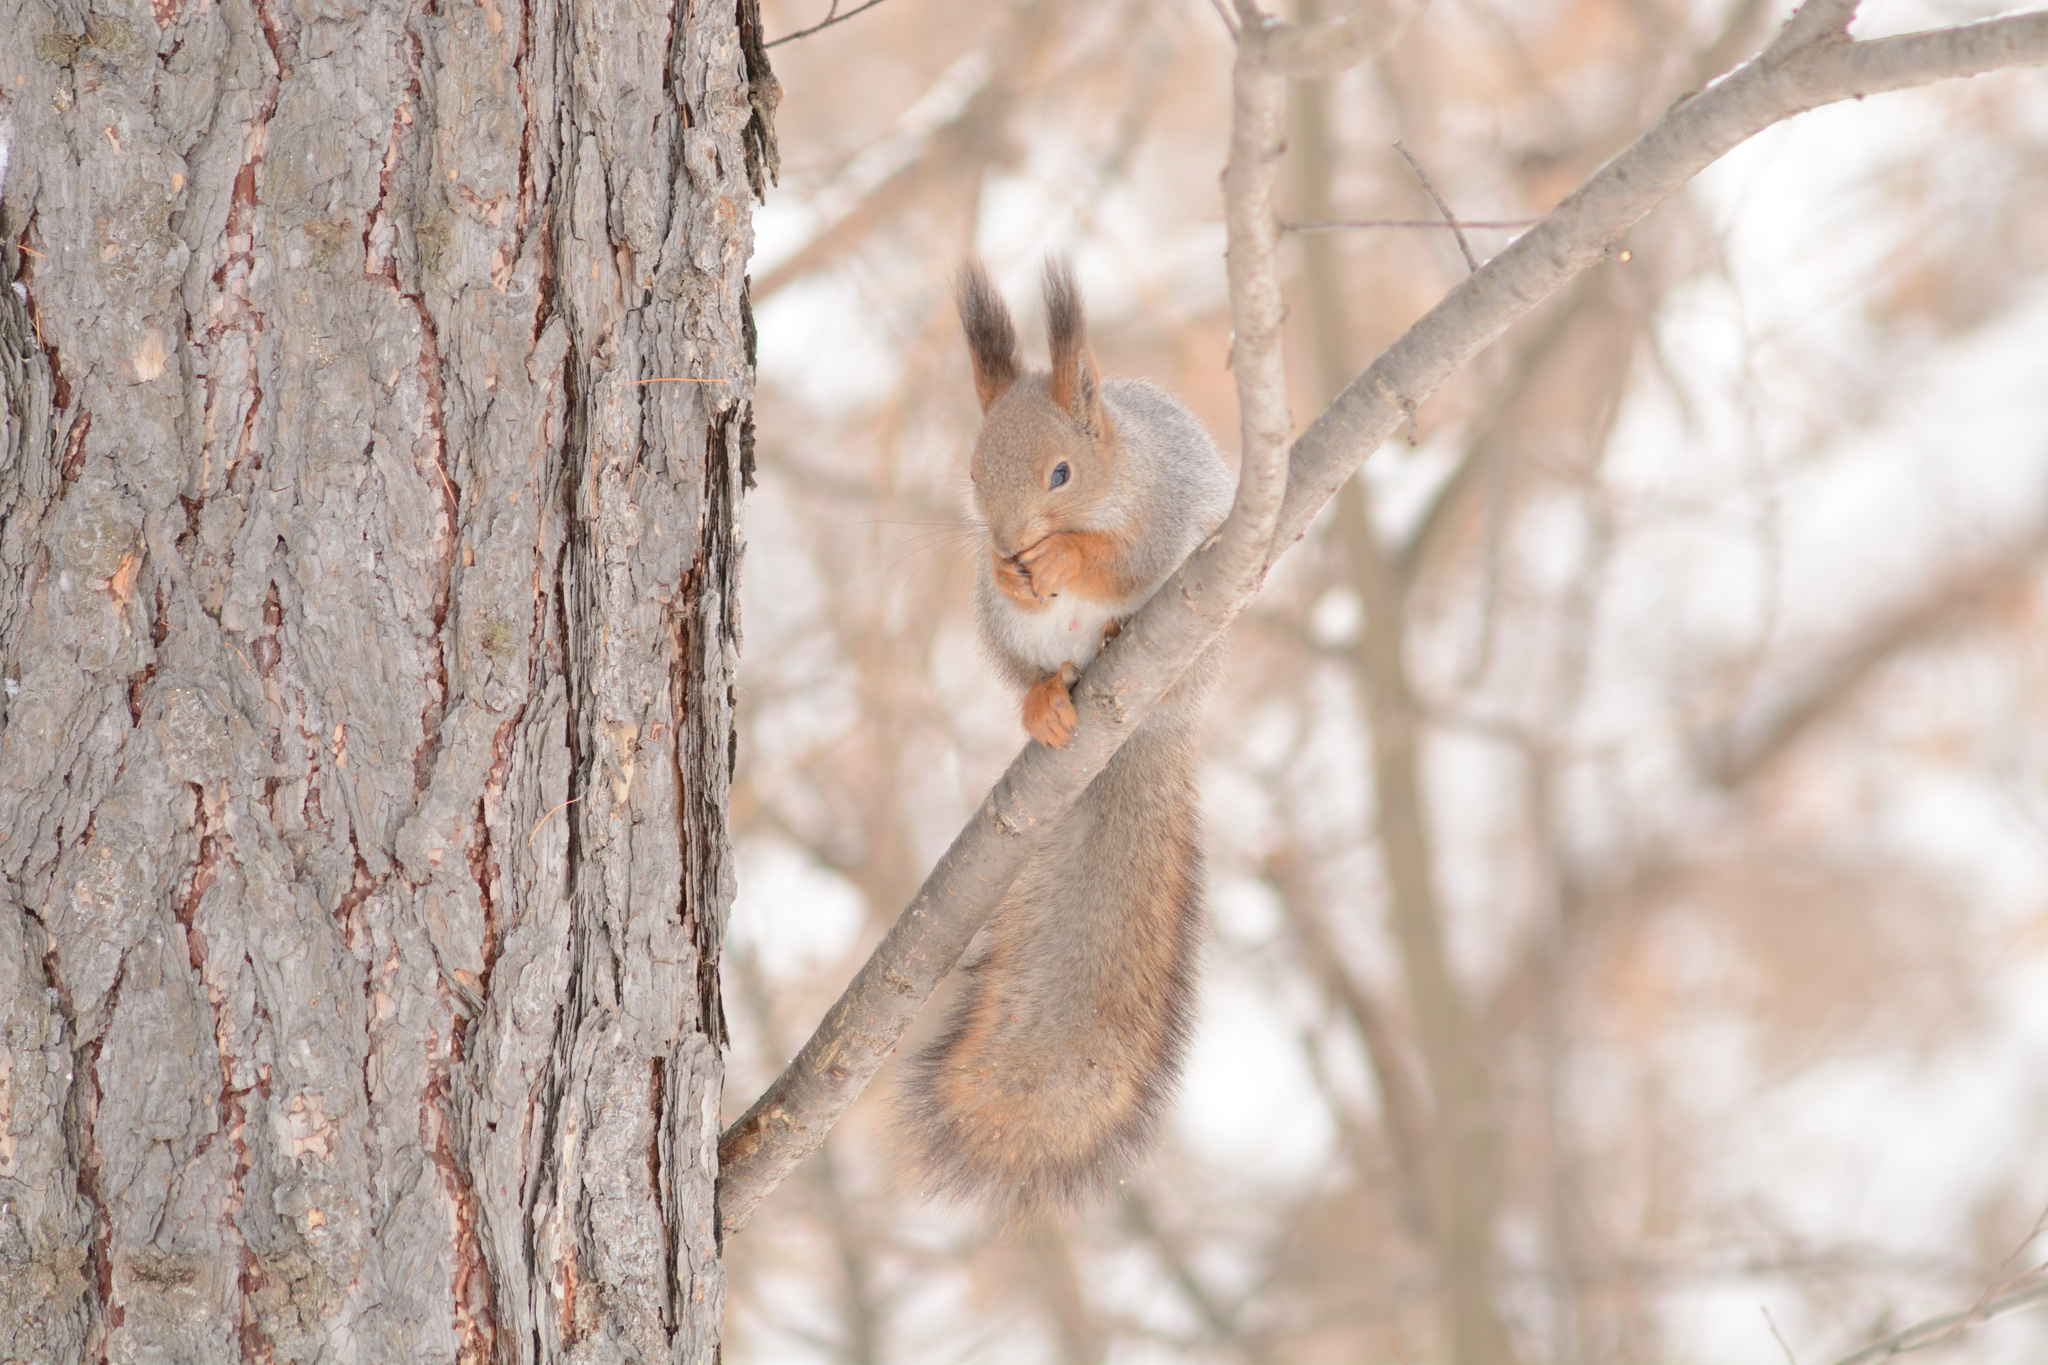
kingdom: Animalia
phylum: Chordata
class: Mammalia
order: Rodentia
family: Sciuridae
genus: Sciurus
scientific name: Sciurus vulgaris
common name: Eurasian red squirrel
